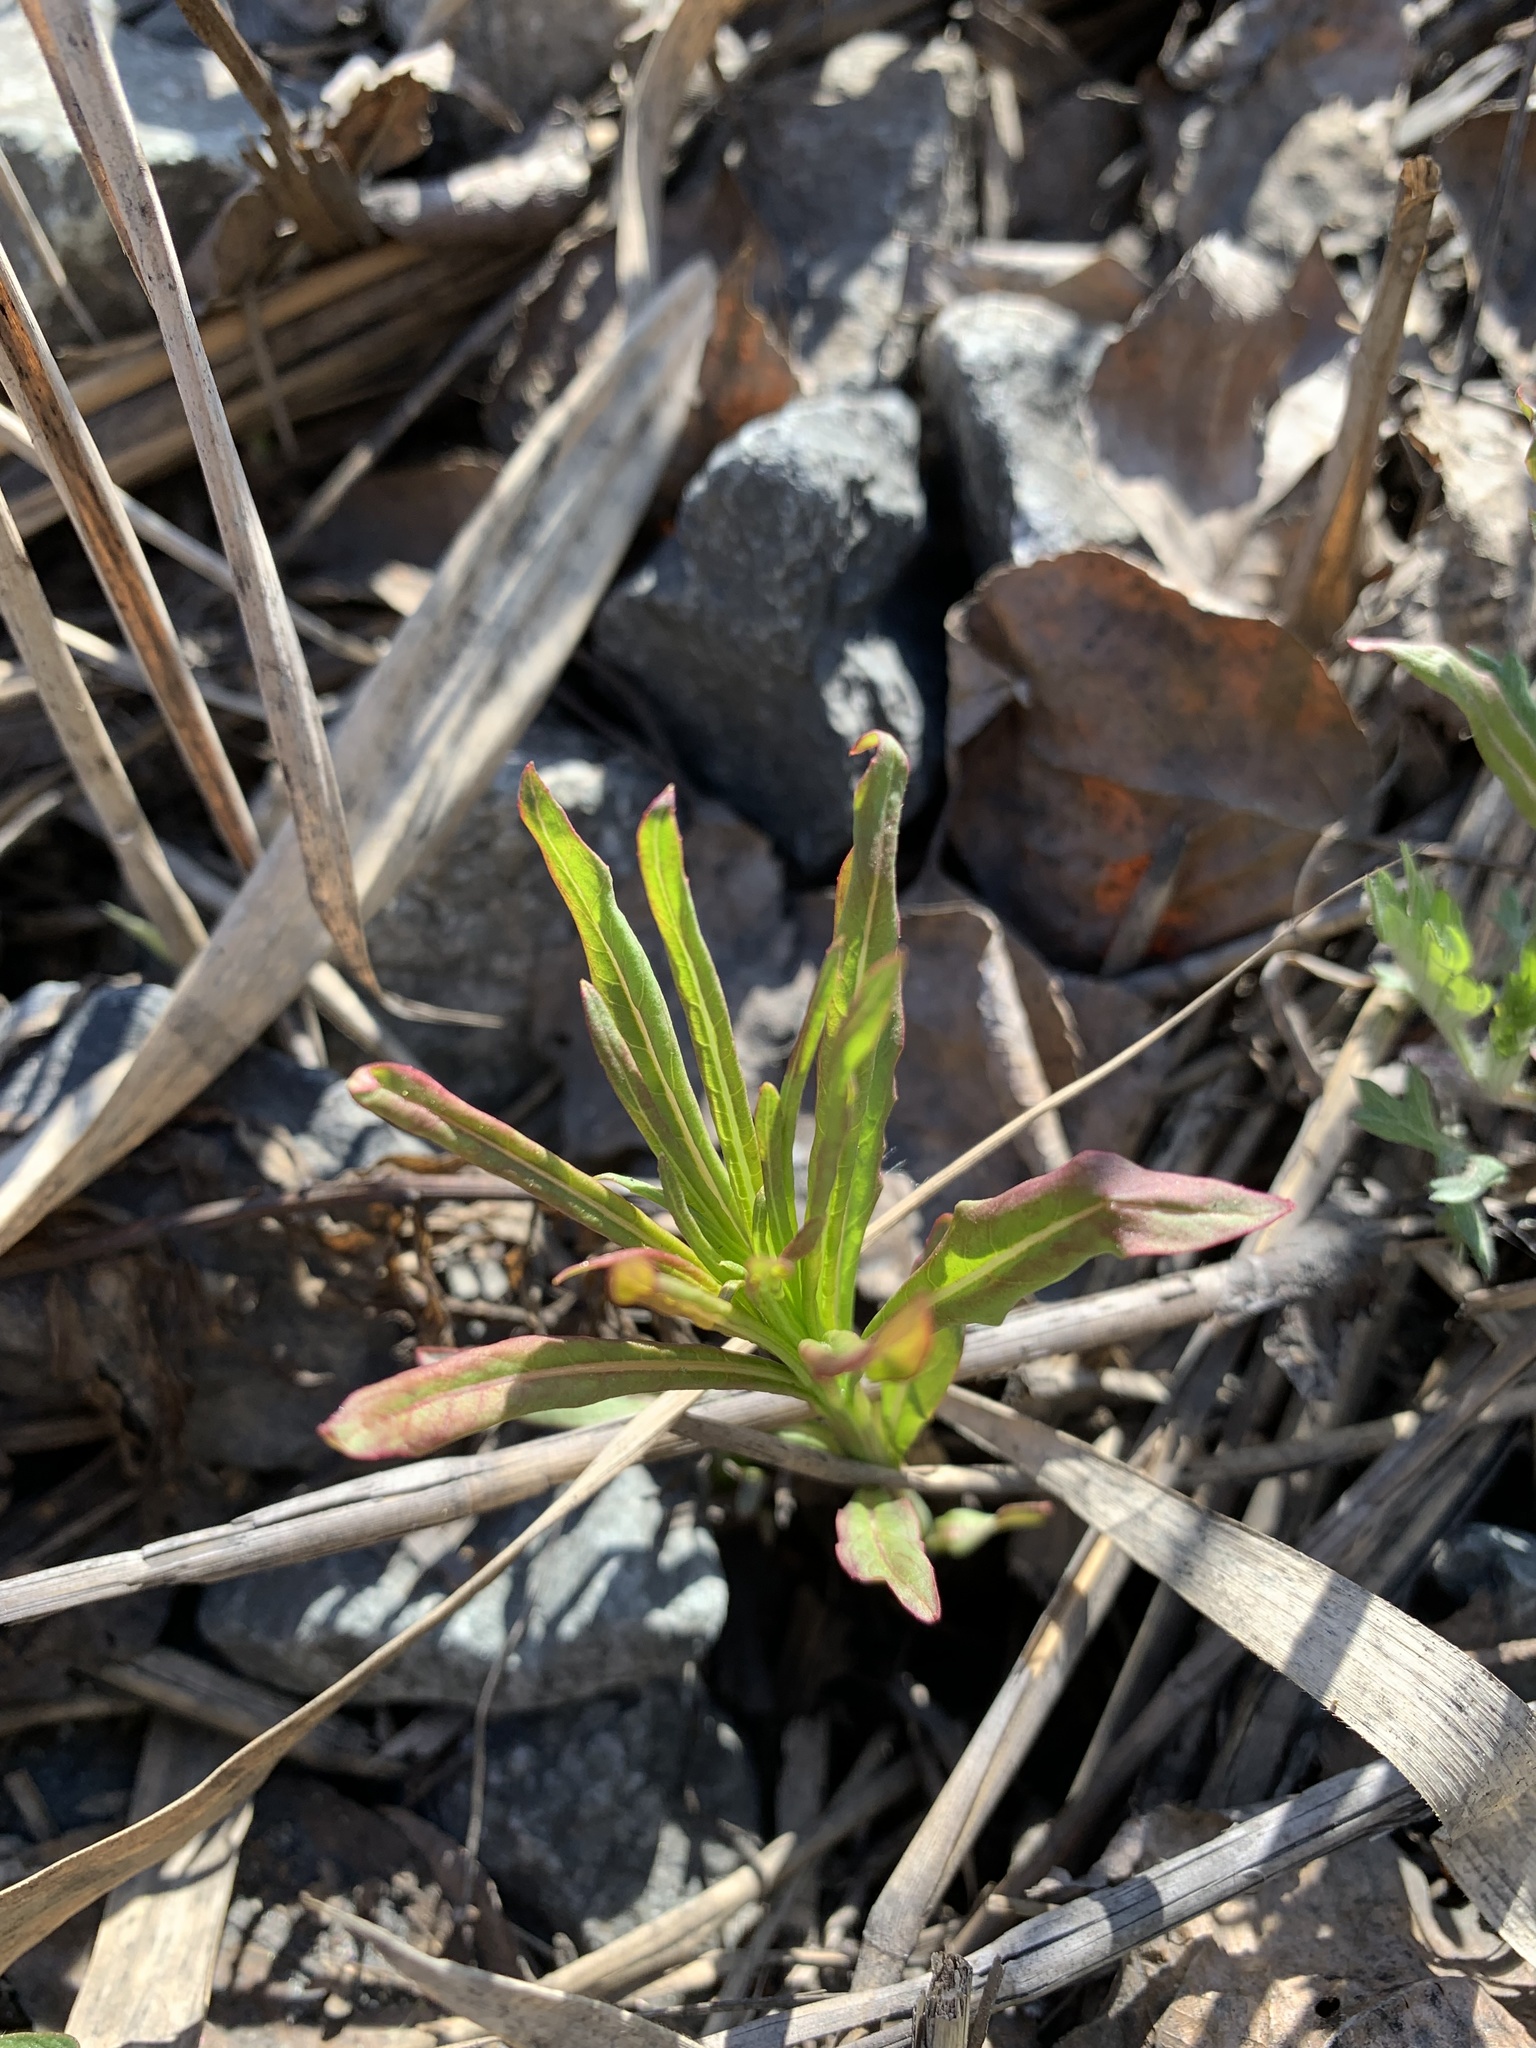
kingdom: Plantae
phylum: Tracheophyta
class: Magnoliopsida
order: Myrtales
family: Onagraceae
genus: Chamaenerion
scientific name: Chamaenerion angustifolium
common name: Fireweed
